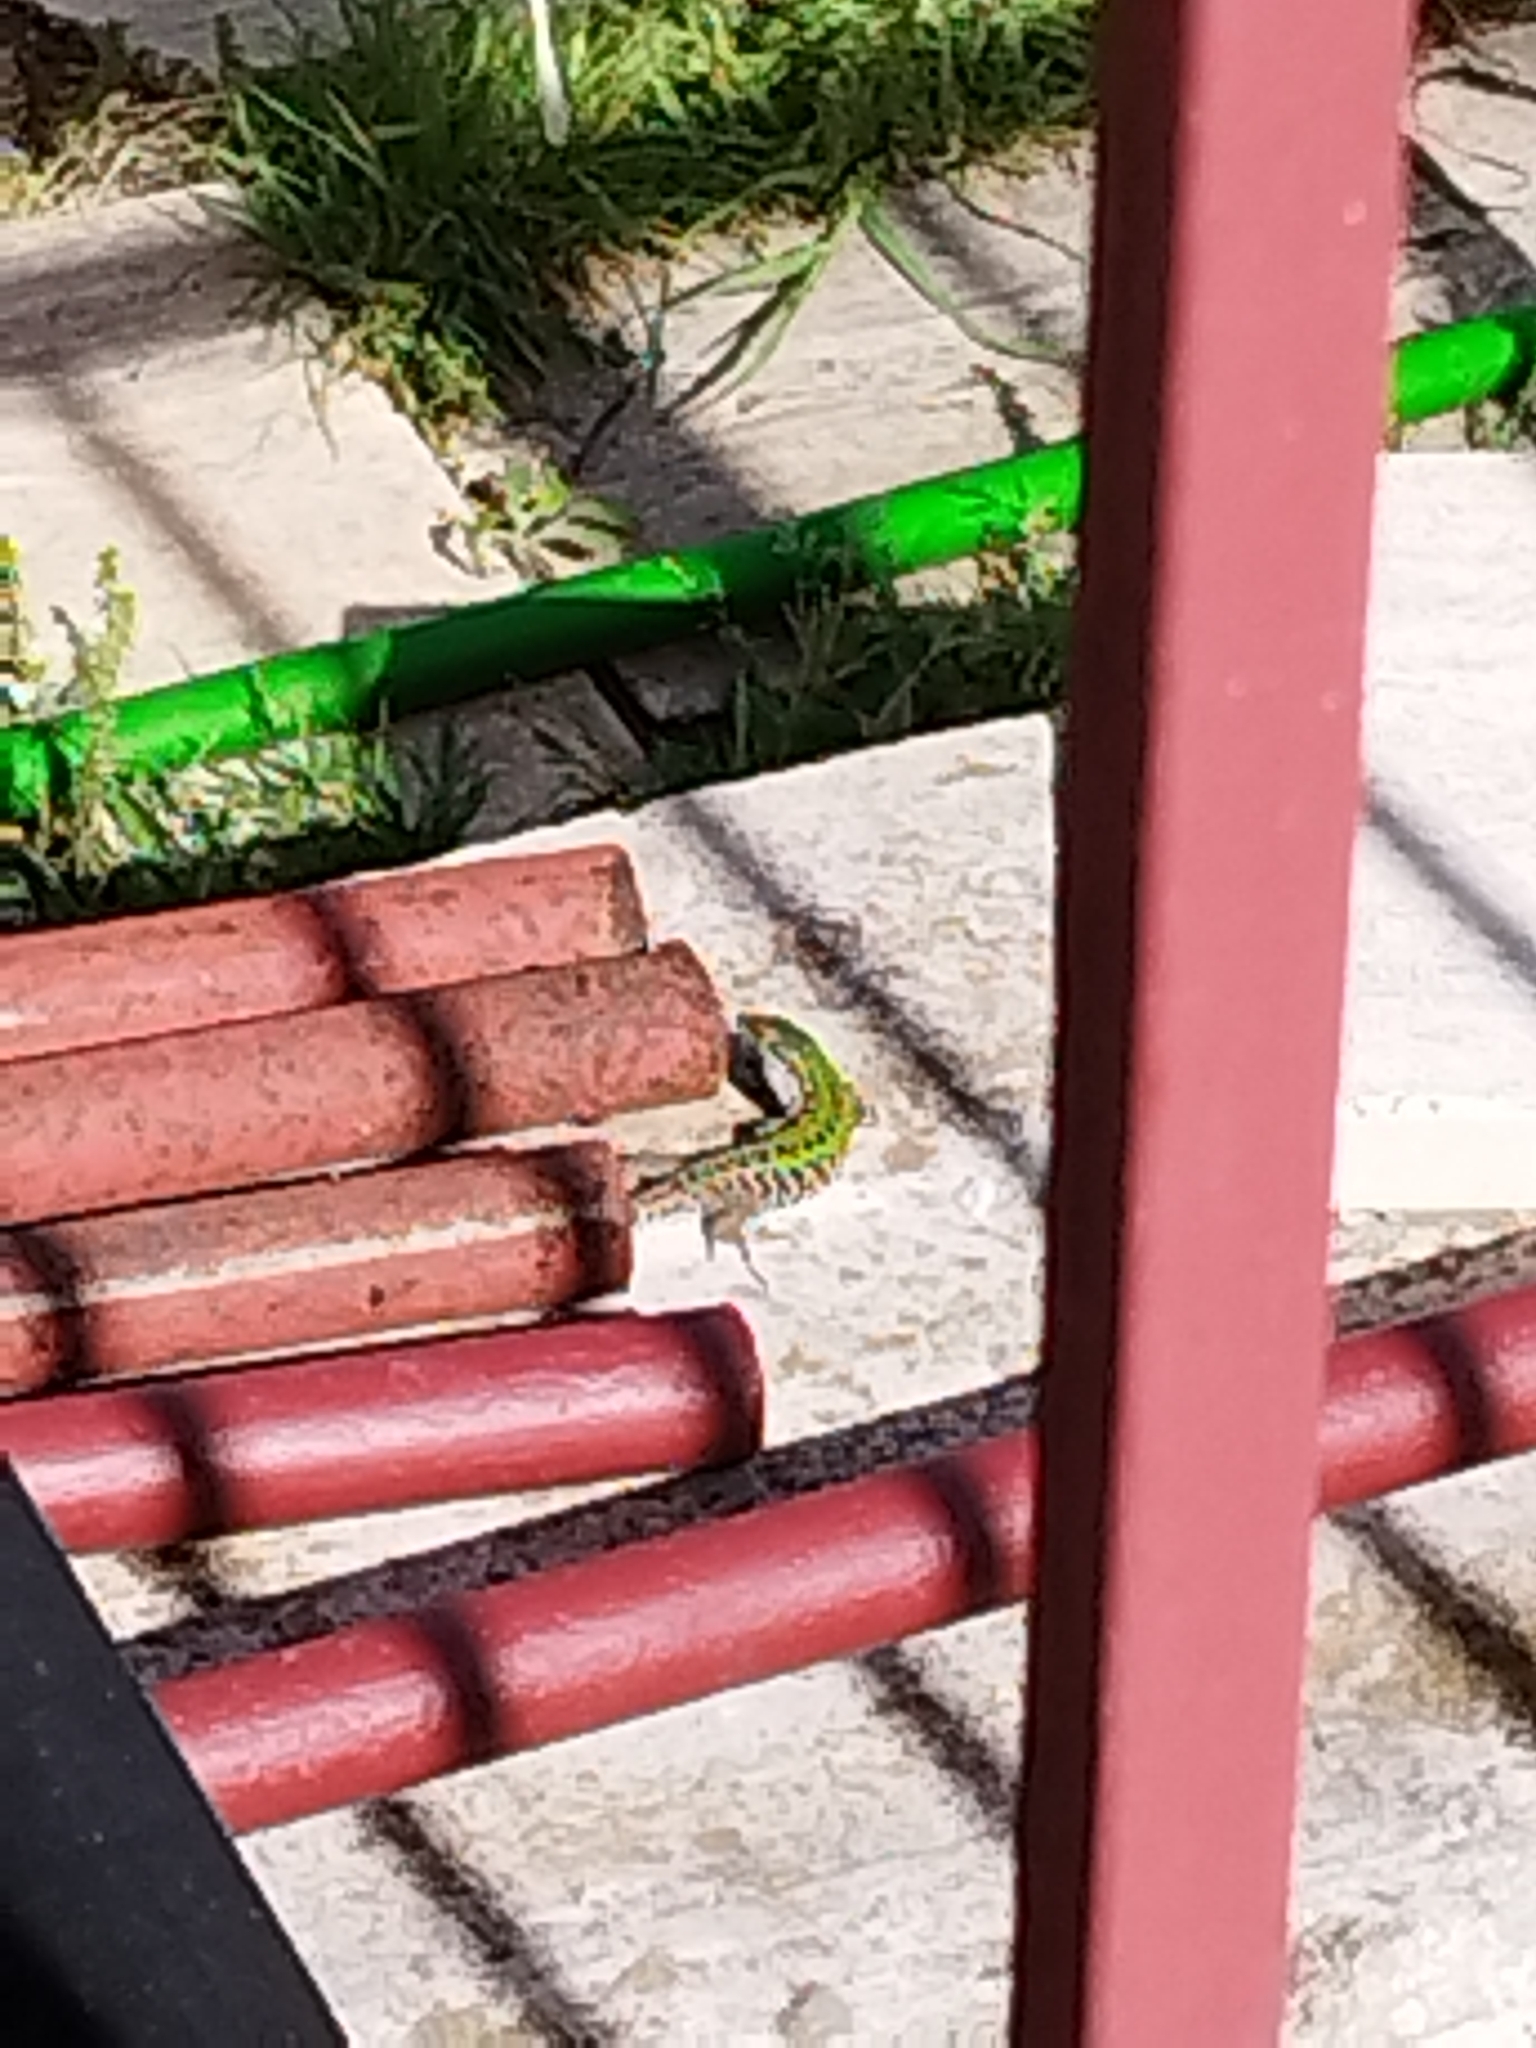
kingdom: Animalia
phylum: Chordata
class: Squamata
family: Lacertidae
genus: Podarcis
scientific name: Podarcis siculus
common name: Italian wall lizard
